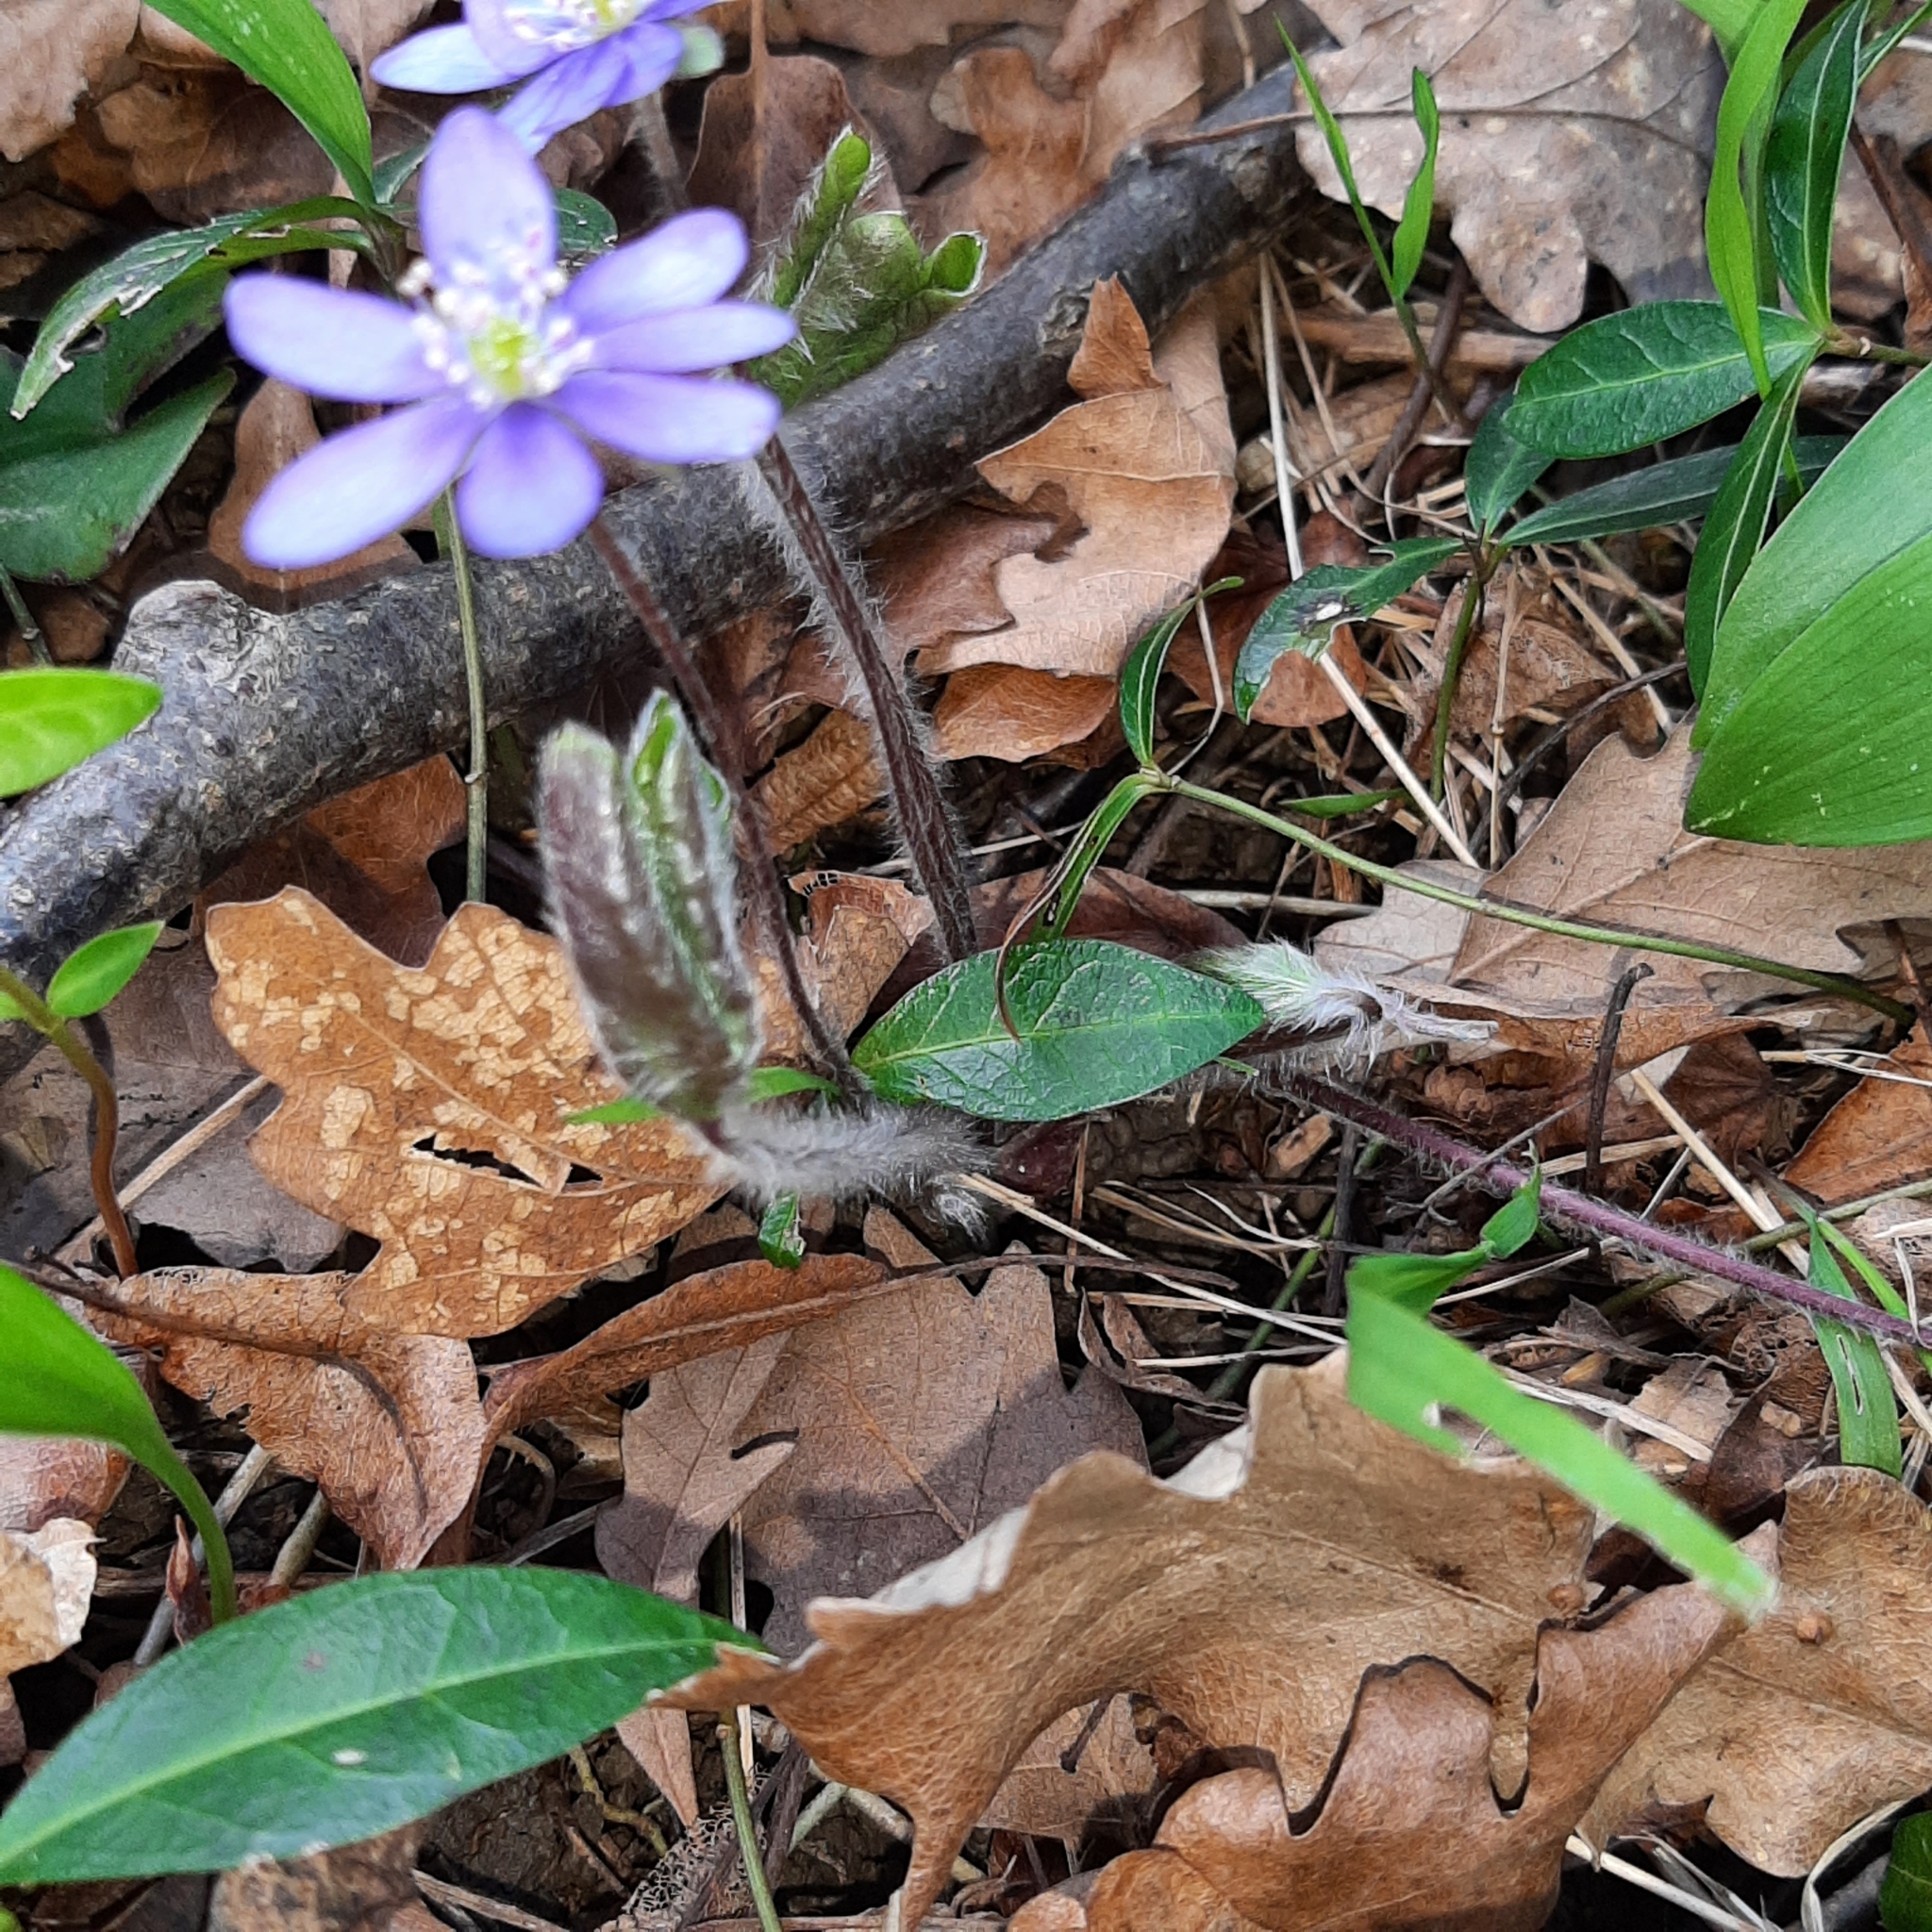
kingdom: Plantae
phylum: Tracheophyta
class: Magnoliopsida
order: Ranunculales
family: Ranunculaceae
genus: Hepatica
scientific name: Hepatica nobilis
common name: Liverleaf
